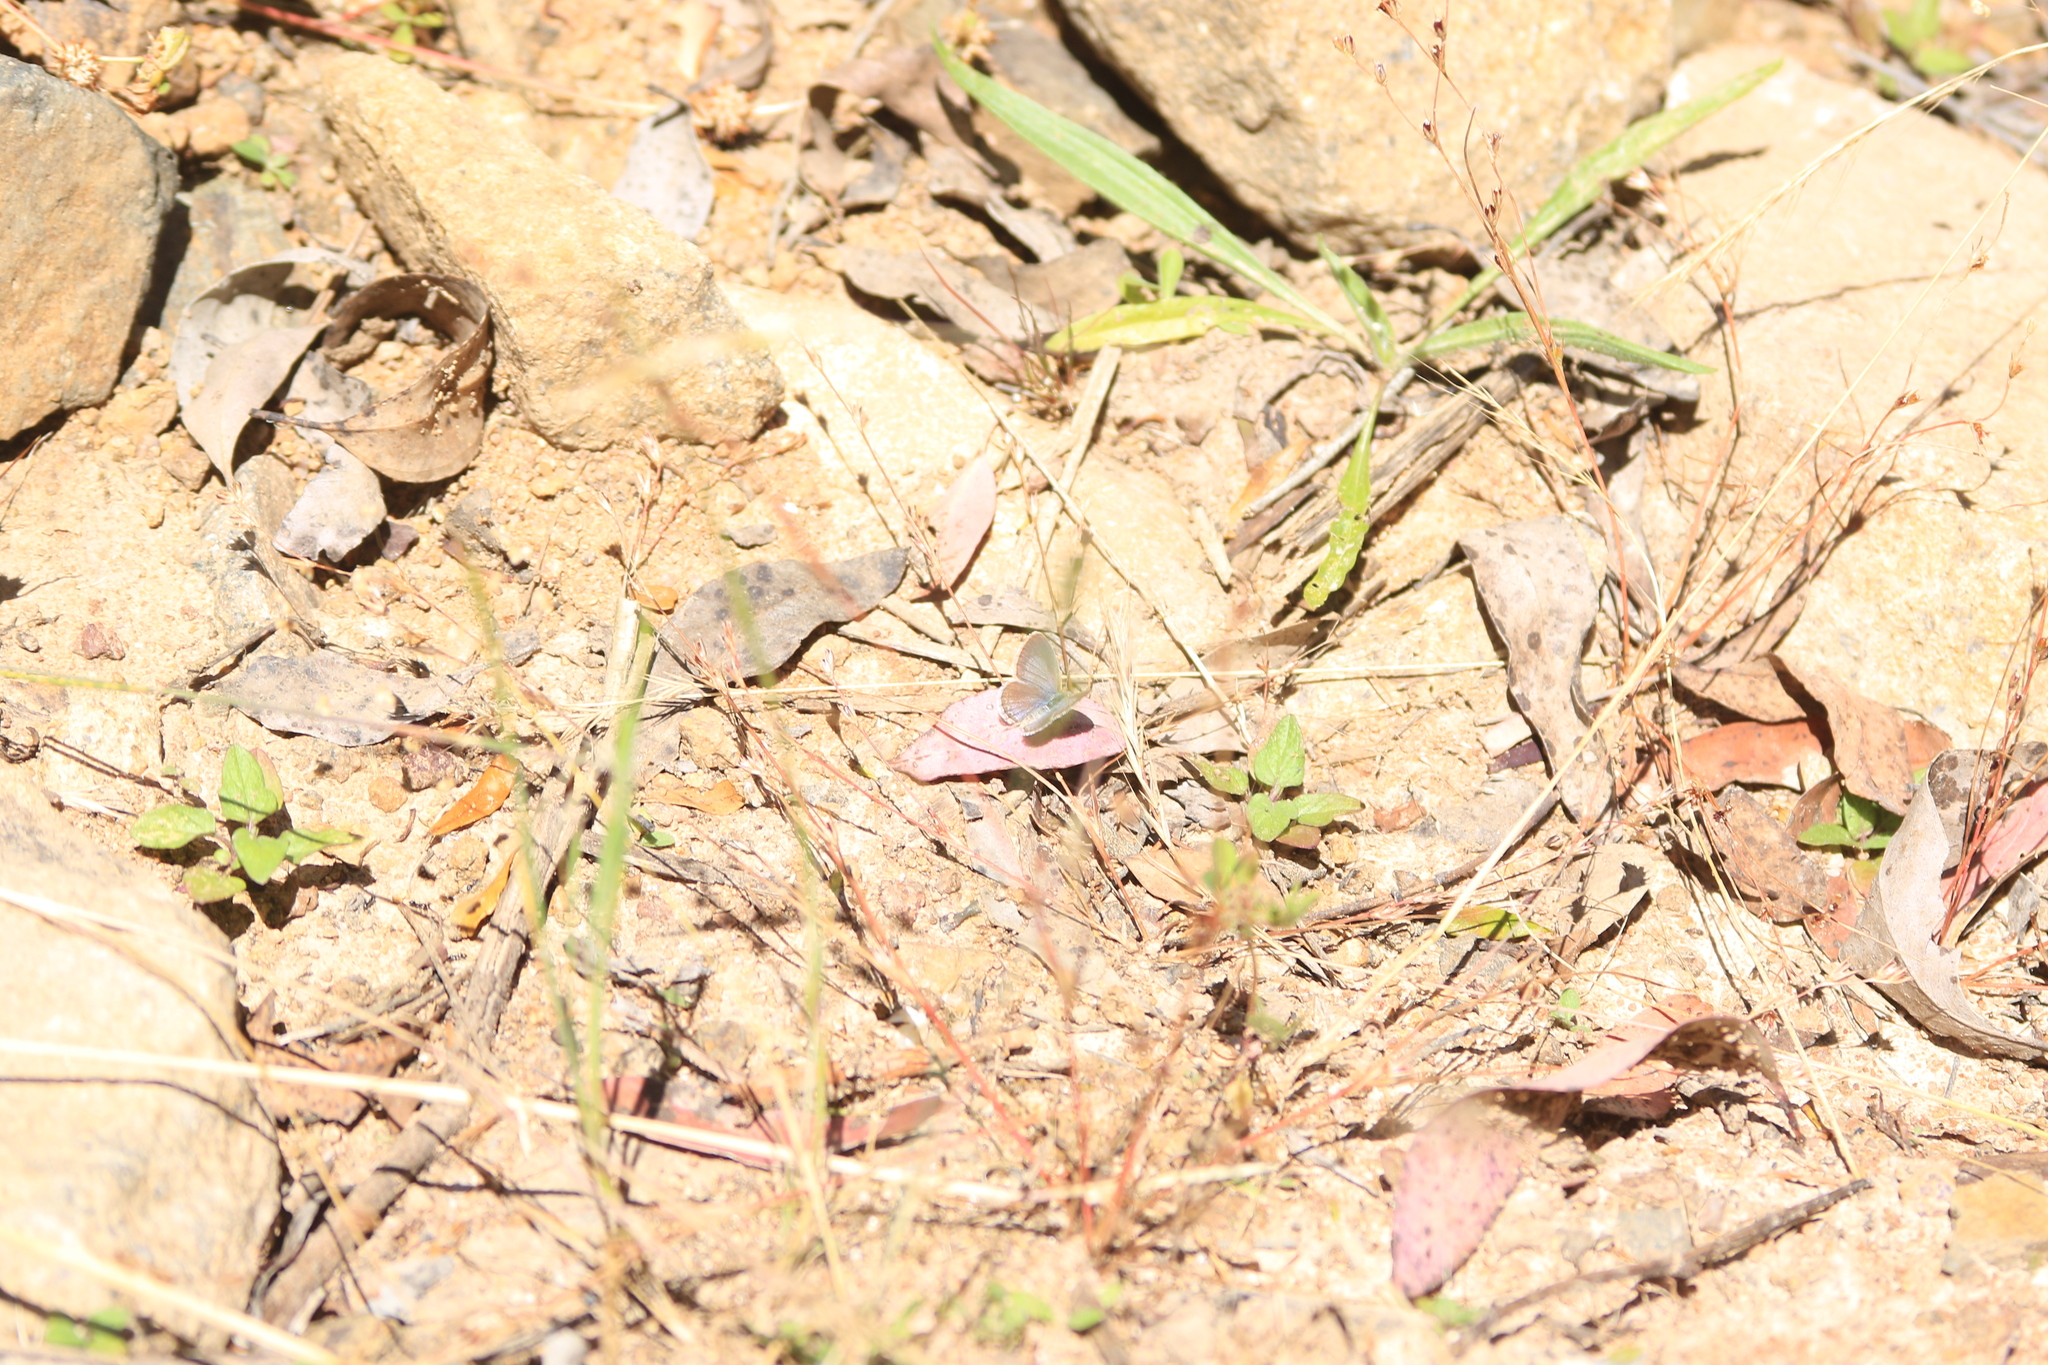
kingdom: Animalia
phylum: Arthropoda
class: Insecta
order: Lepidoptera
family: Lycaenidae
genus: Zizina
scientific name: Zizina labradus
